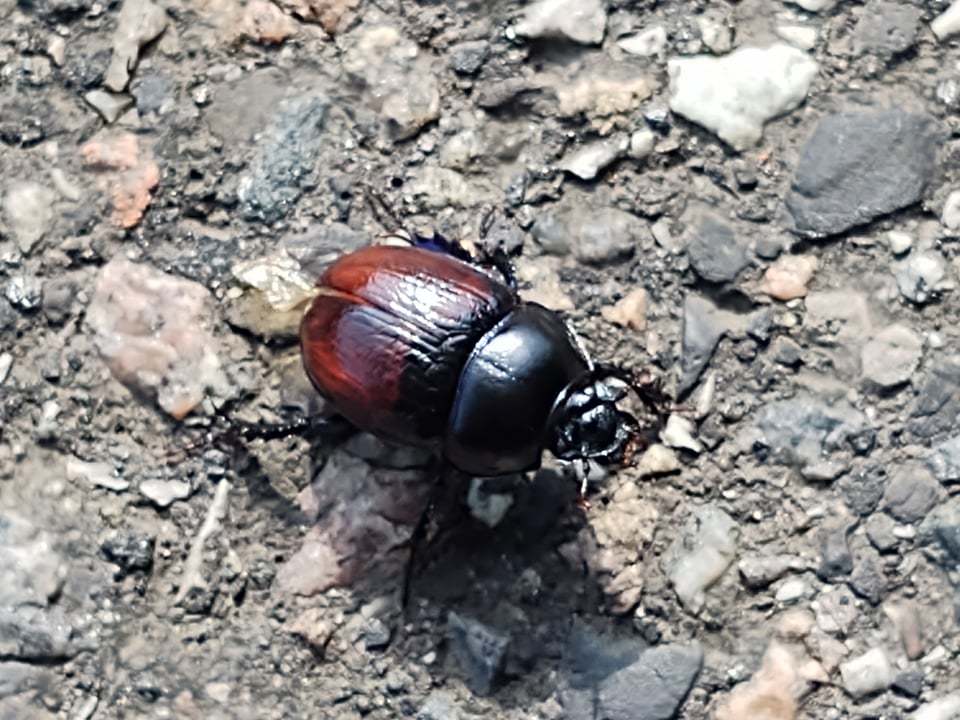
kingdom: Animalia
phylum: Arthropoda
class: Insecta
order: Coleoptera
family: Geotrupidae
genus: Anoplotrupes
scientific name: Anoplotrupes stercorosus
